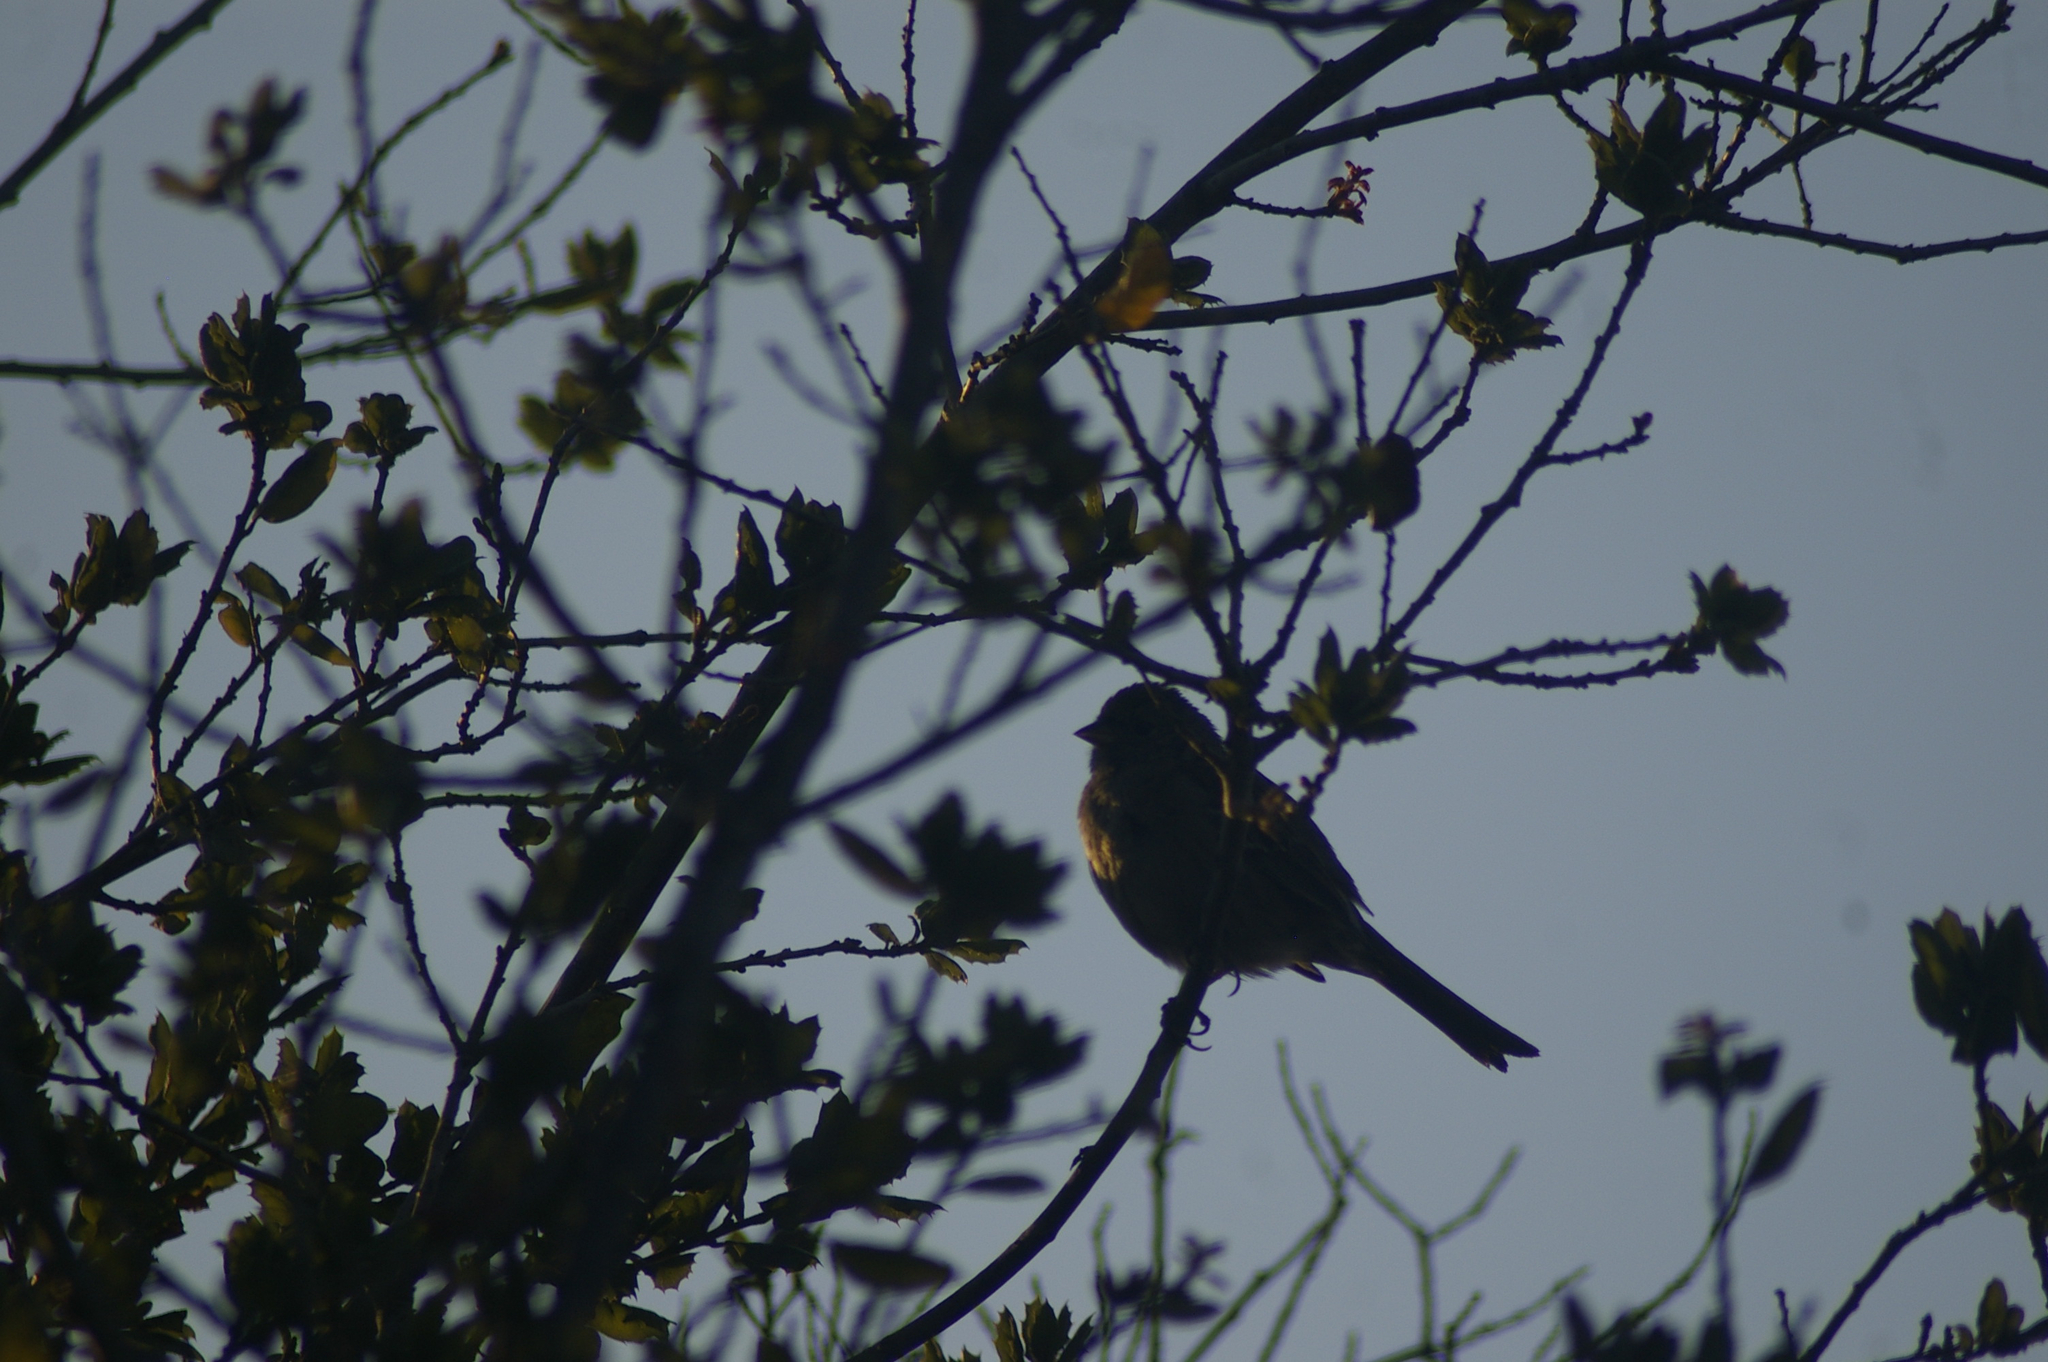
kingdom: Animalia
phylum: Chordata
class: Aves
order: Passeriformes
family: Passerellidae
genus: Zonotrichia
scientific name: Zonotrichia atricapilla
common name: Golden-crowned sparrow
